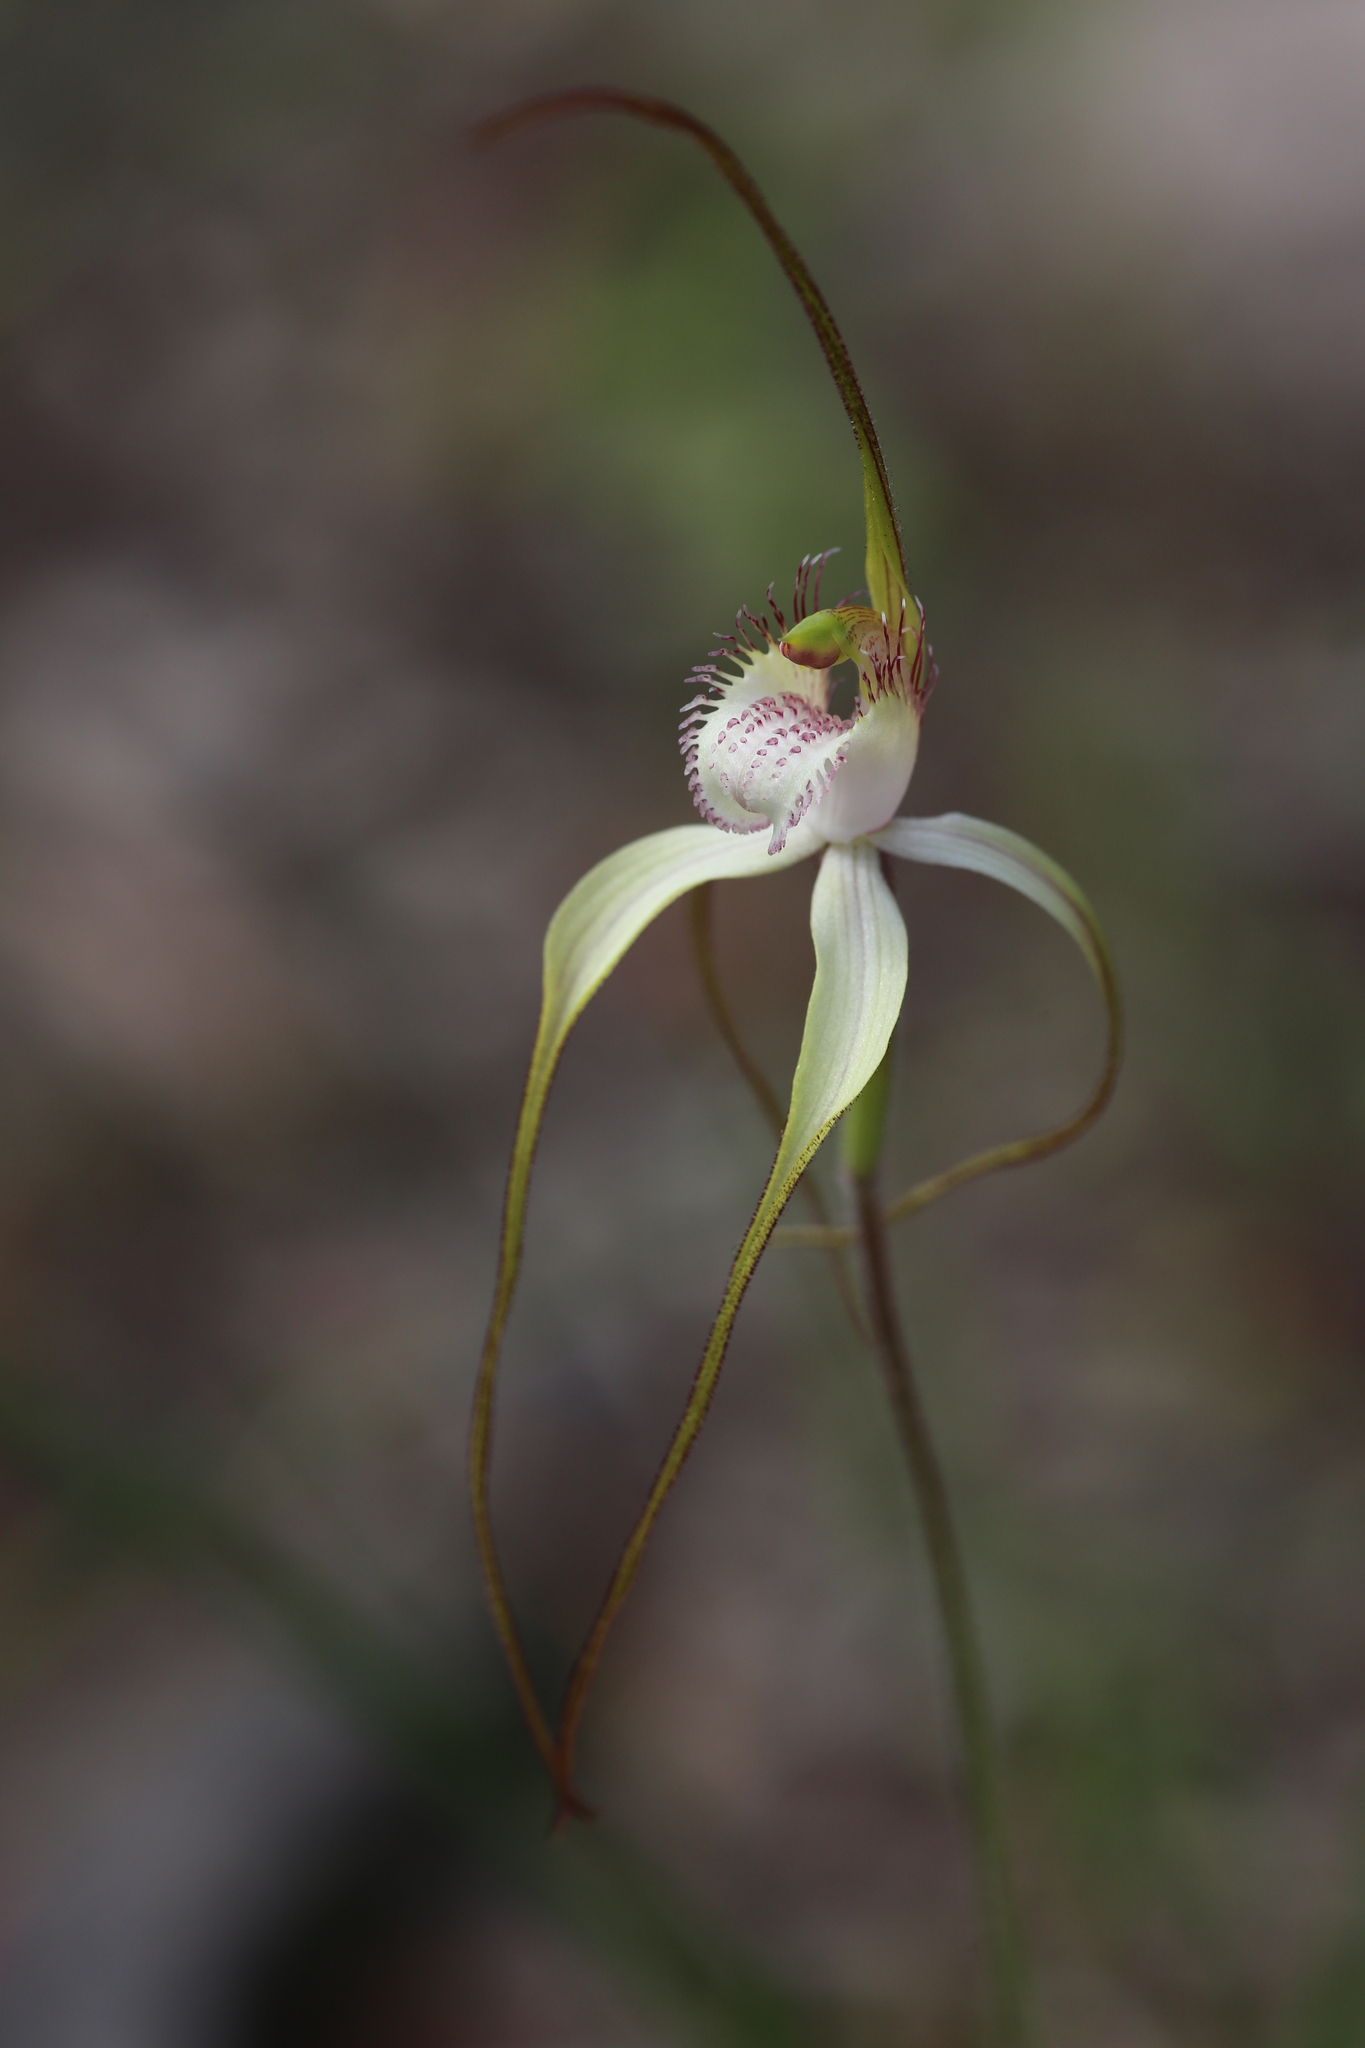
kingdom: Plantae
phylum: Tracheophyta
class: Liliopsida
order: Asparagales
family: Orchidaceae
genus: Caladenia
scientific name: Caladenia speciosa
